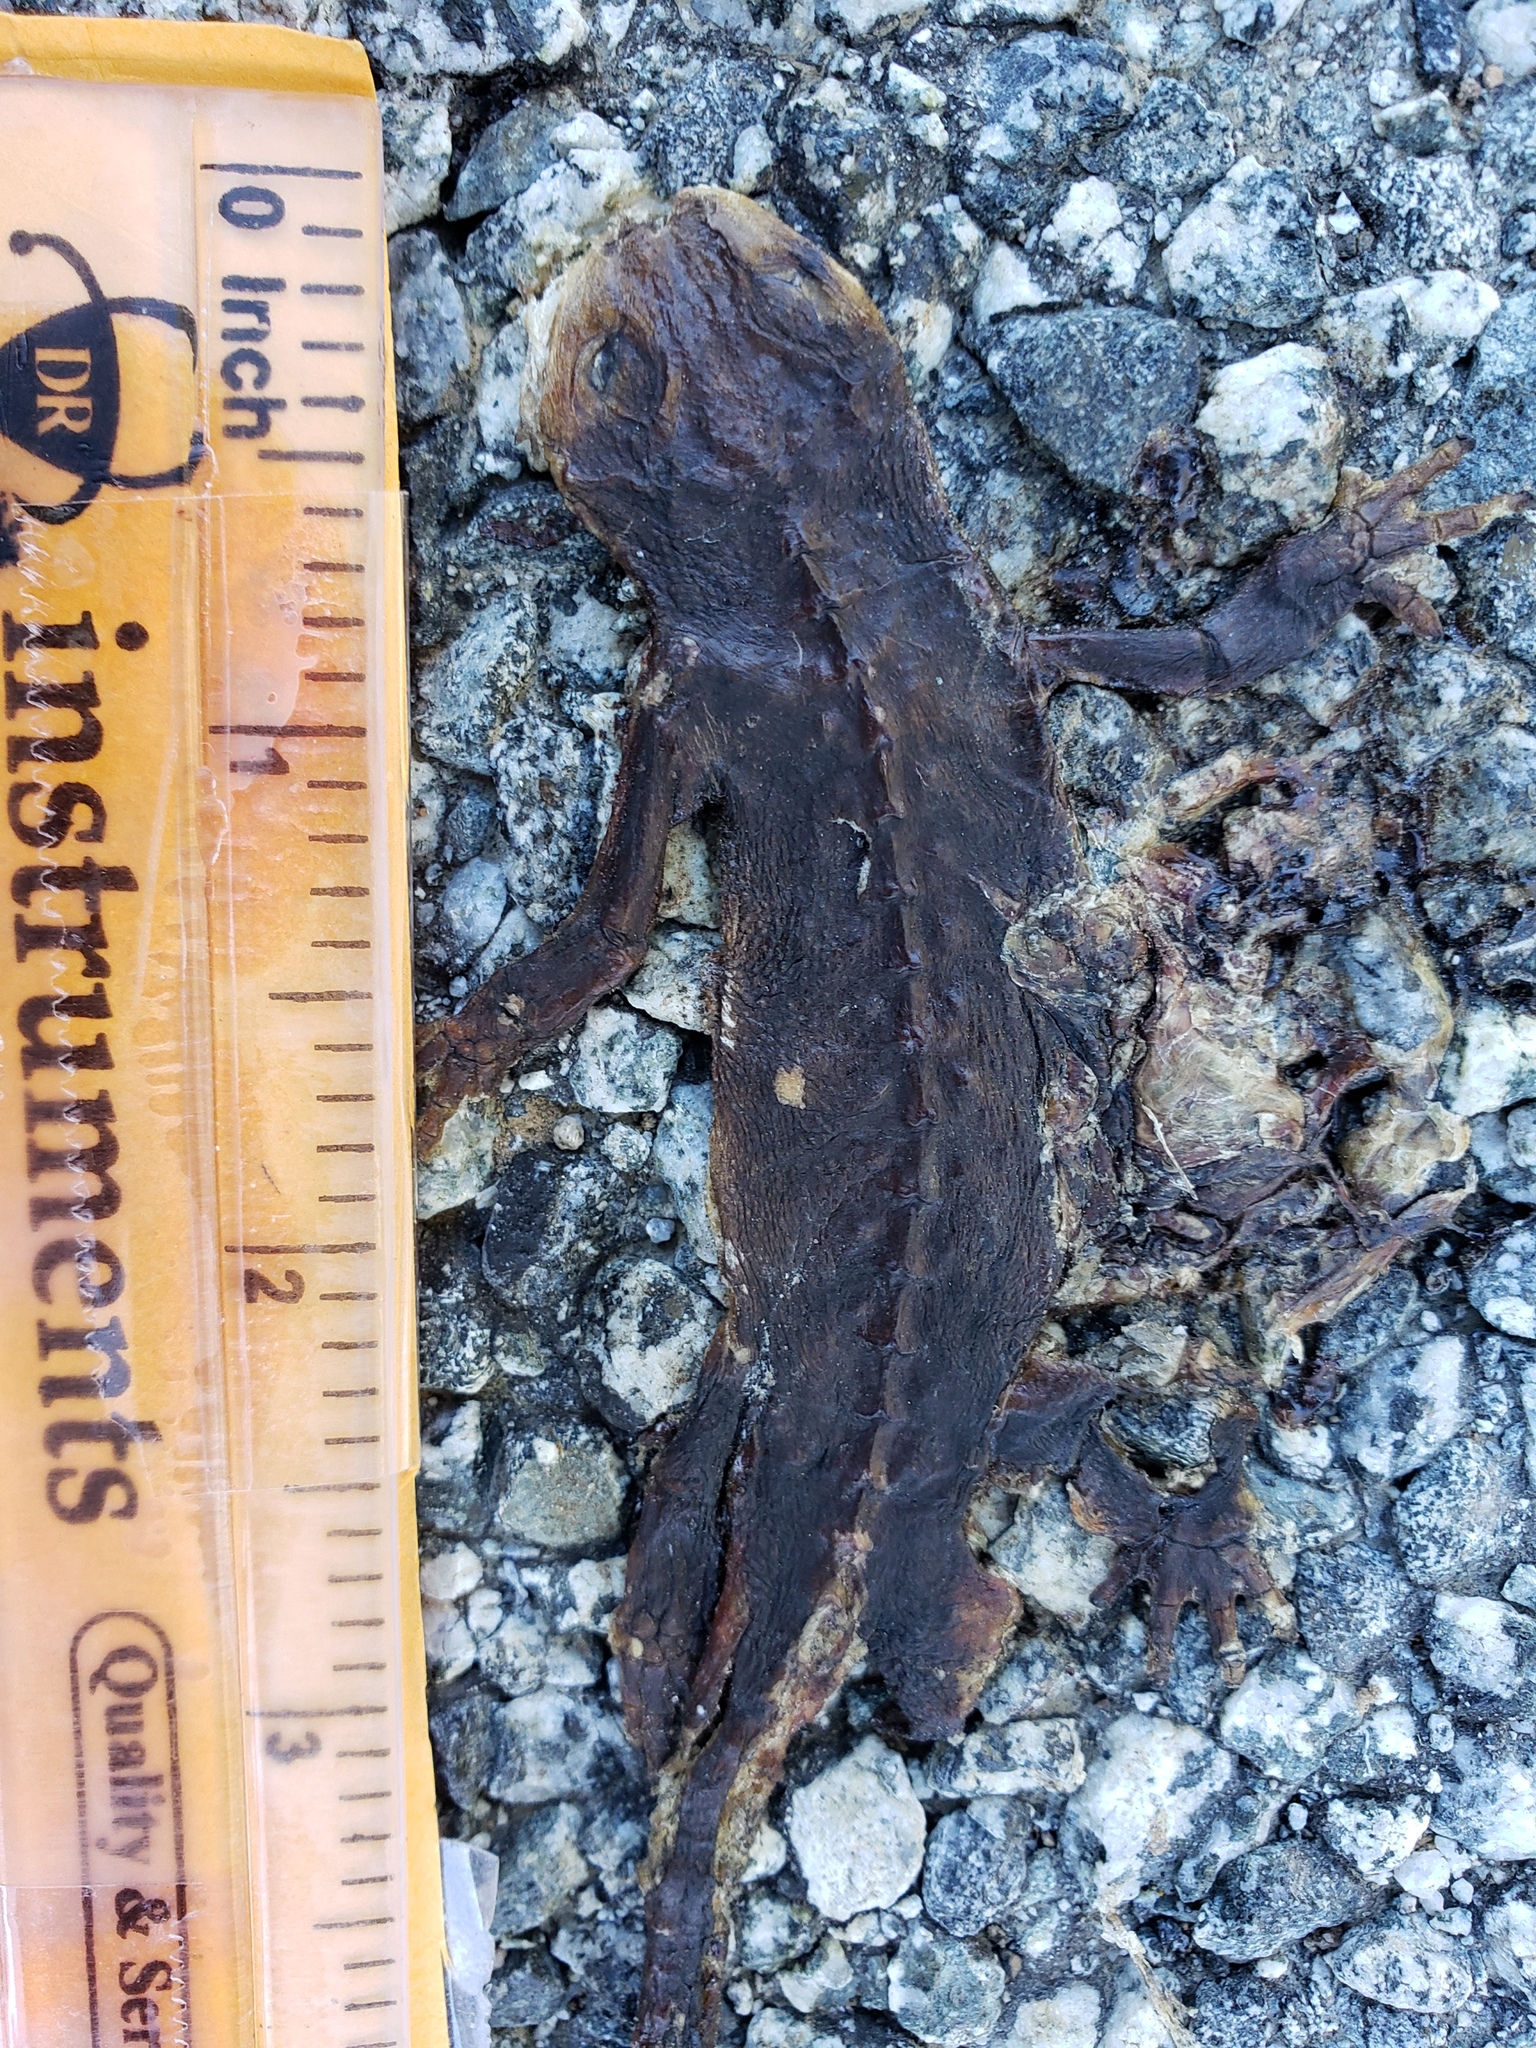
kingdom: Animalia
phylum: Chordata
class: Amphibia
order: Caudata
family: Salamandridae
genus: Taricha
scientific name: Taricha
